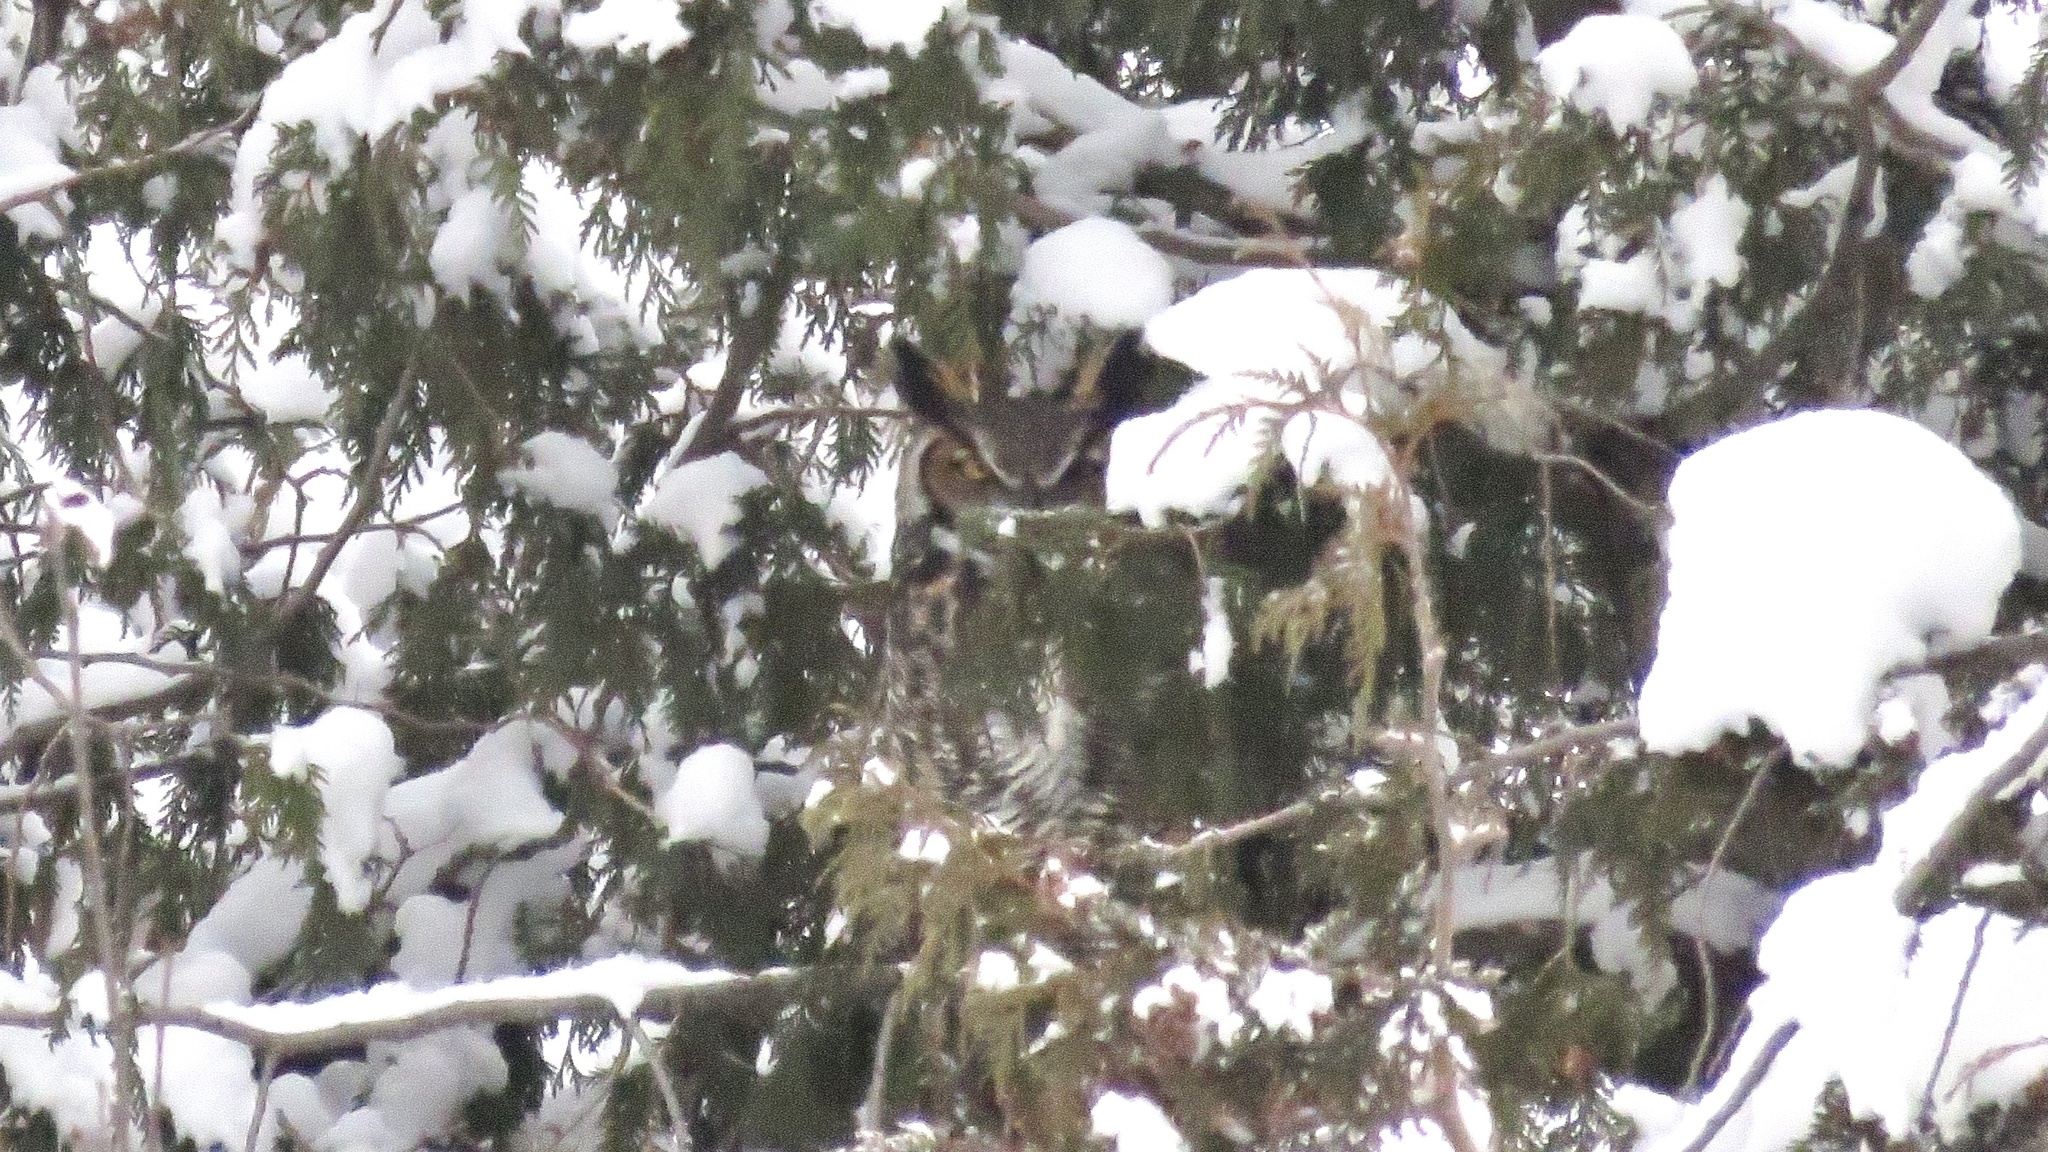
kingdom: Animalia
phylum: Chordata
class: Aves
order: Strigiformes
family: Strigidae
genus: Bubo
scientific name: Bubo virginianus
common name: Great horned owl
